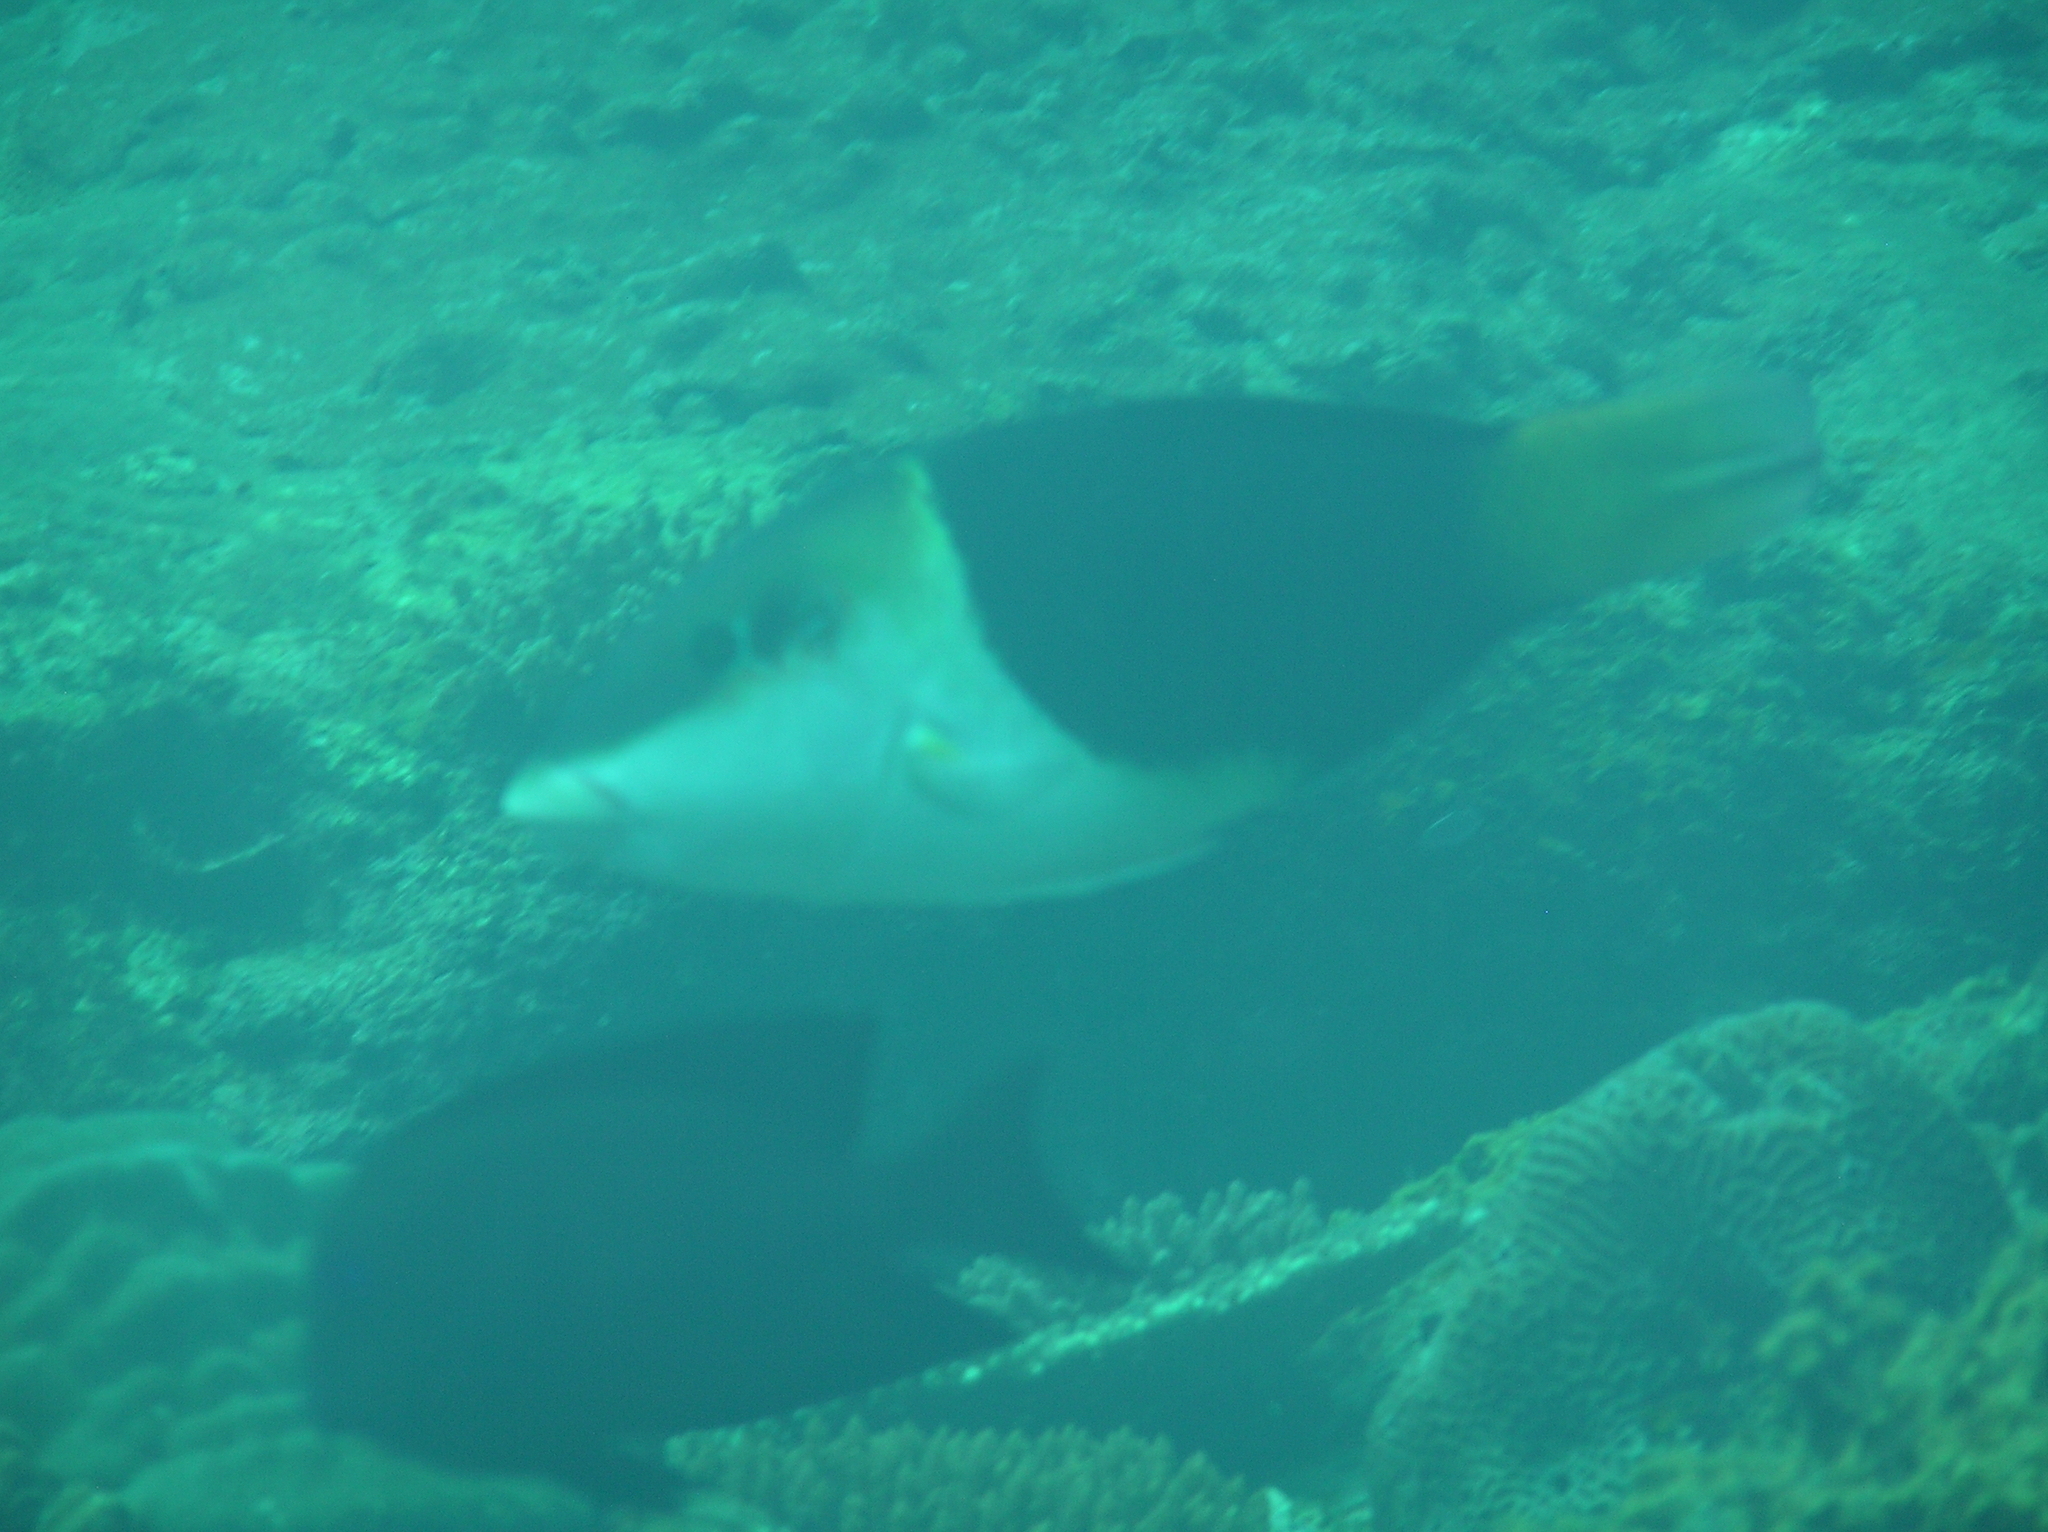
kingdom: Animalia
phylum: Chordata
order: Perciformes
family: Labridae
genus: Hemigymnus
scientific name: Hemigymnus melapterus
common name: Blackeye thicklip
